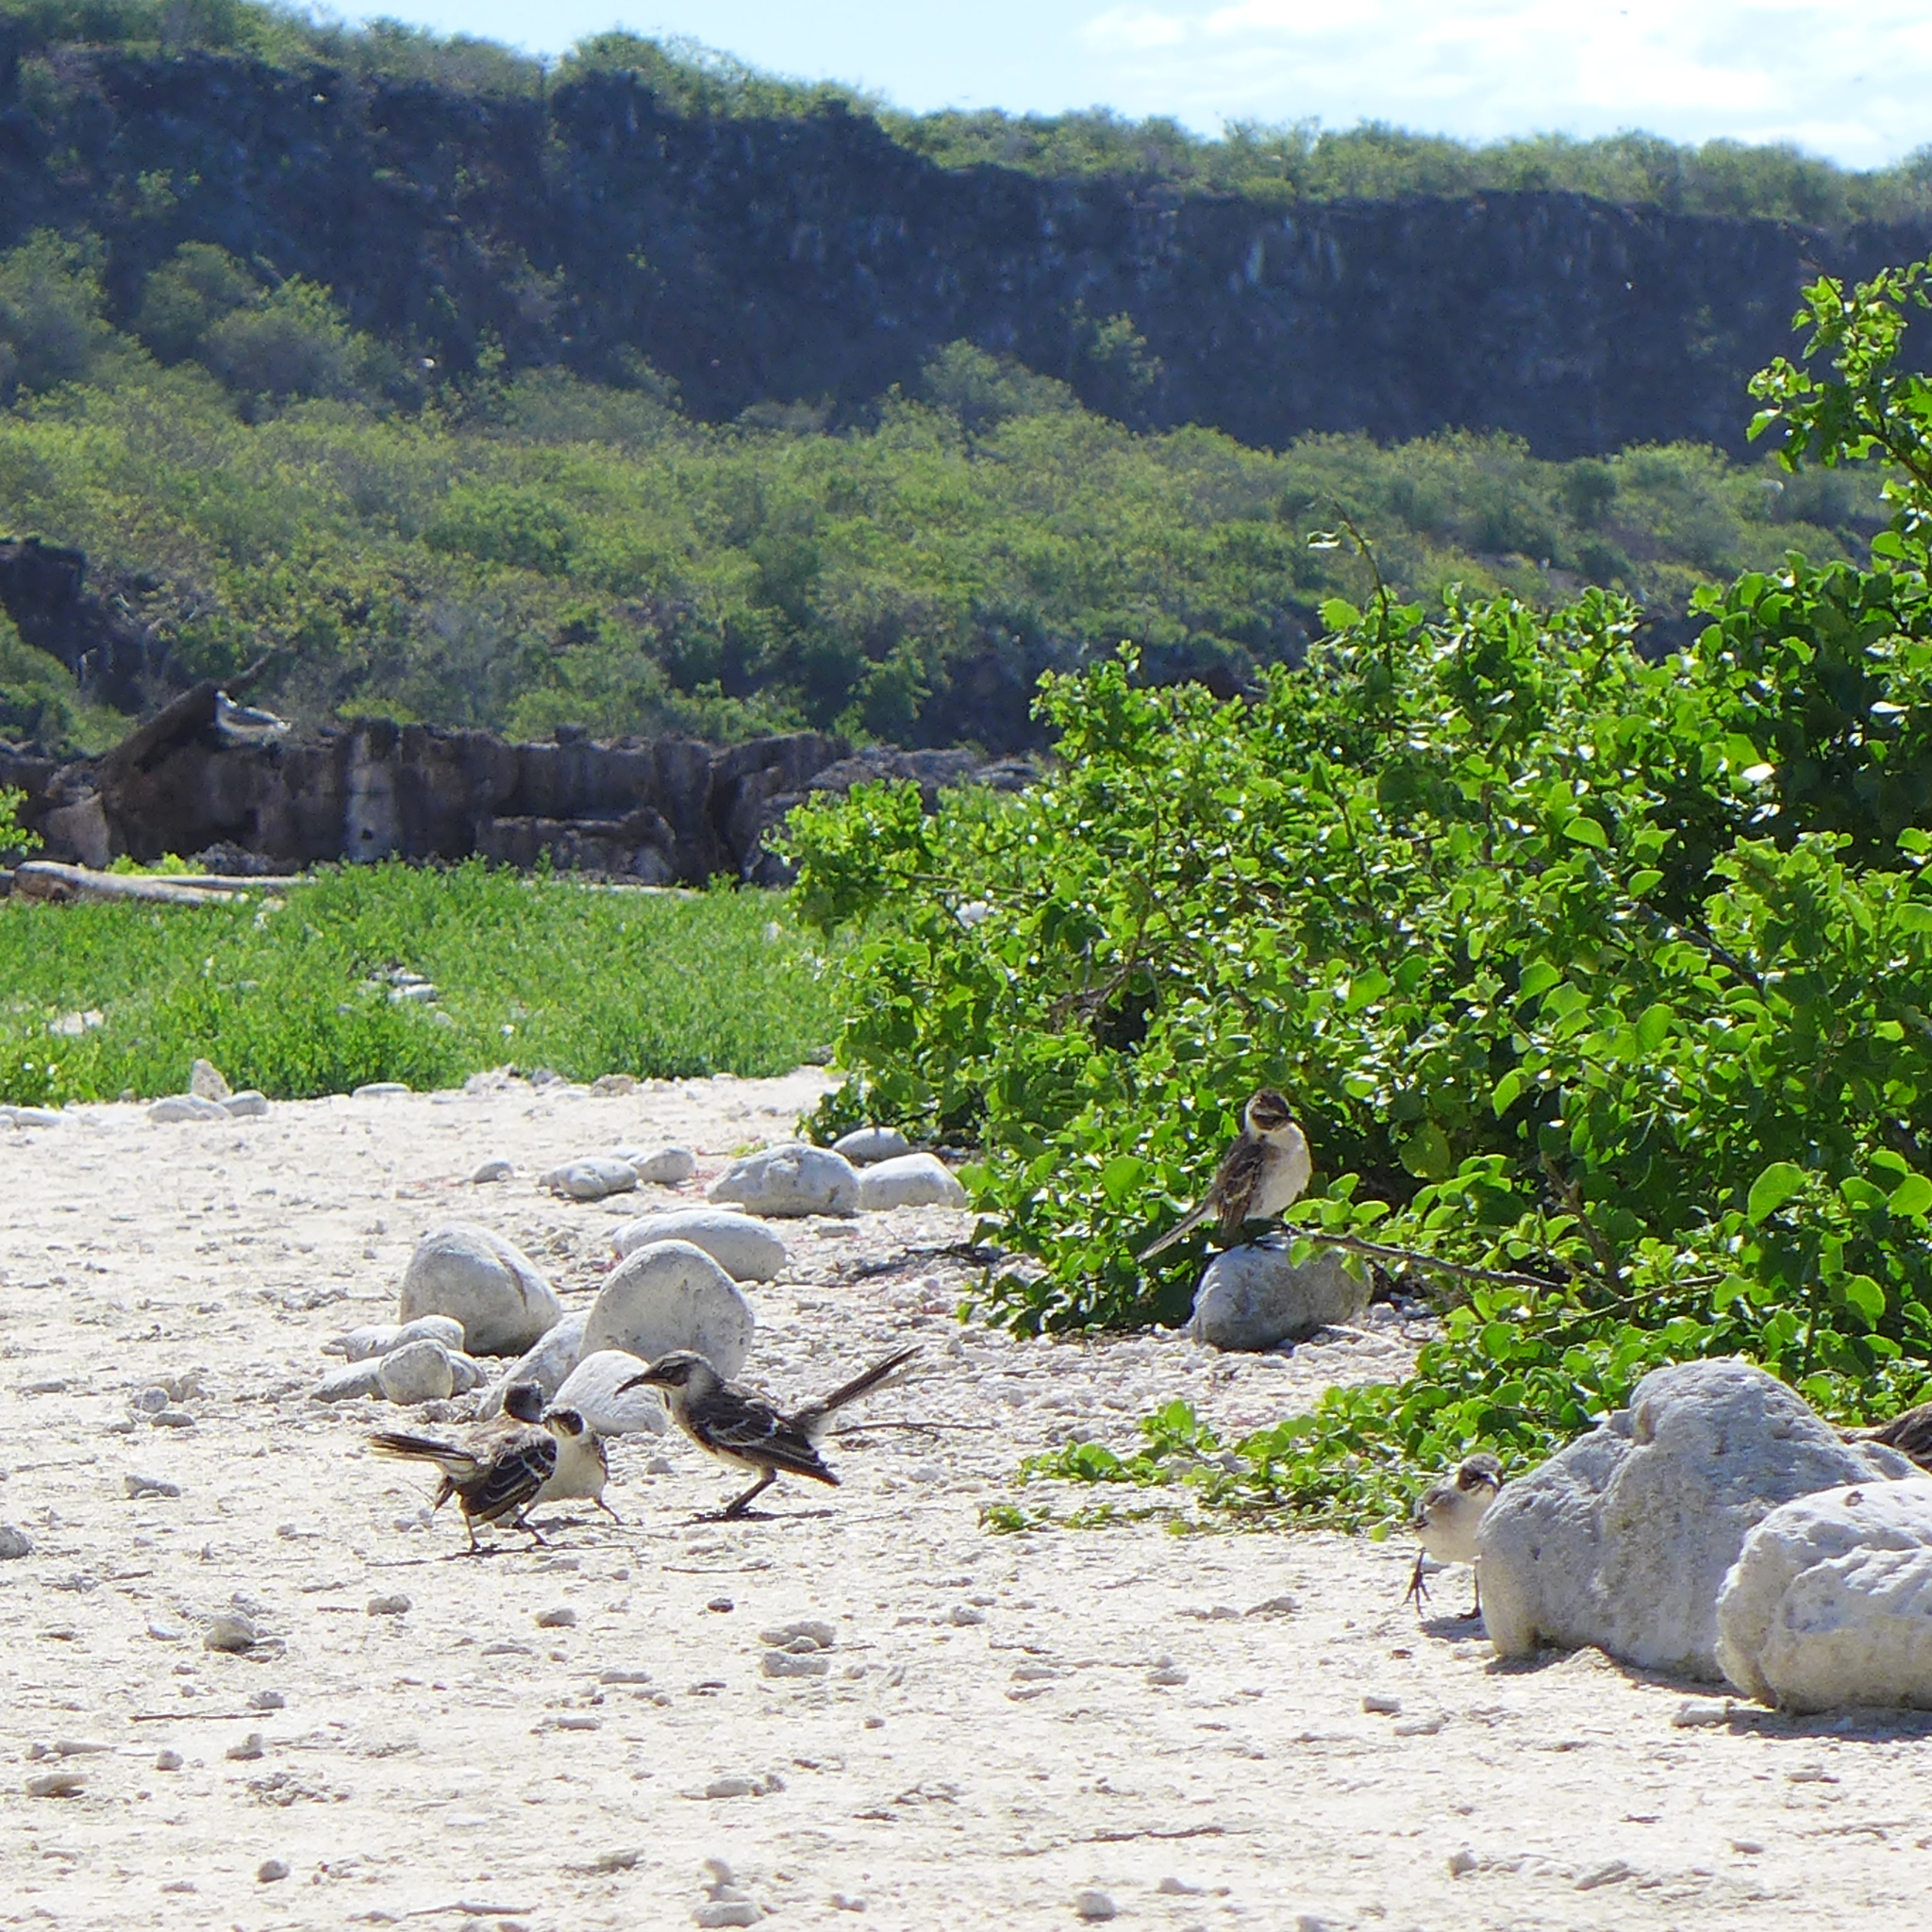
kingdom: Animalia
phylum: Chordata
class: Aves
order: Passeriformes
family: Mimidae
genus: Mimus
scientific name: Mimus parvulus
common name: Galapagos mockingbird
